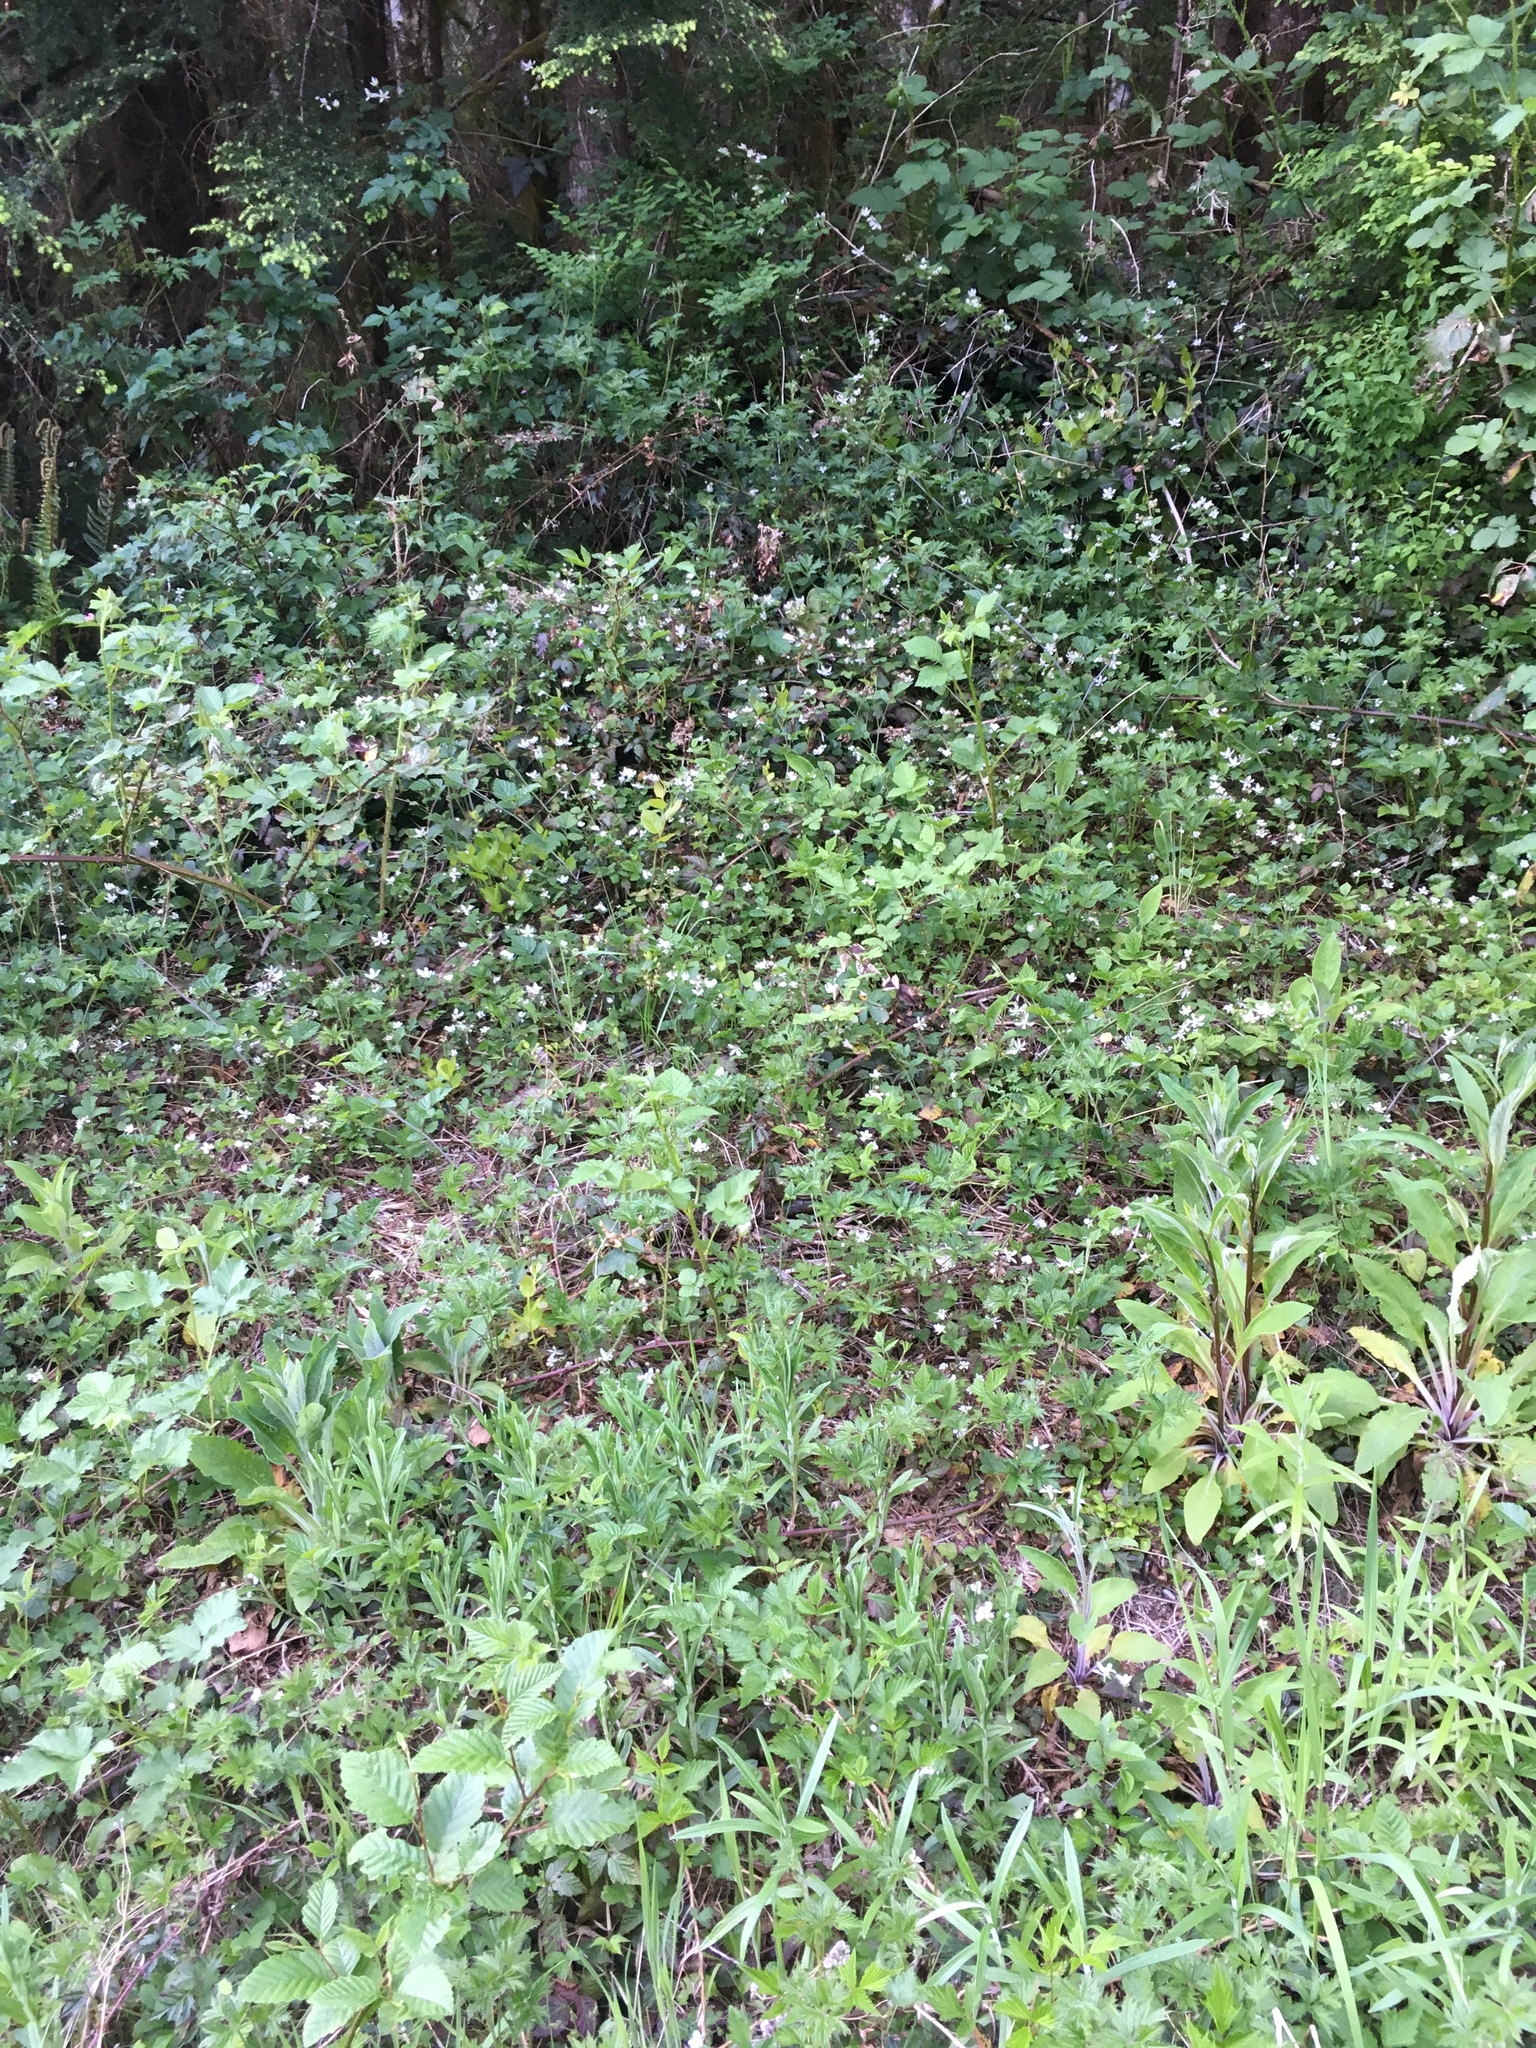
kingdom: Plantae
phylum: Tracheophyta
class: Magnoliopsida
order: Rosales
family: Rosaceae
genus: Rubus
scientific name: Rubus ursinus
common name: Pacific blackberry
